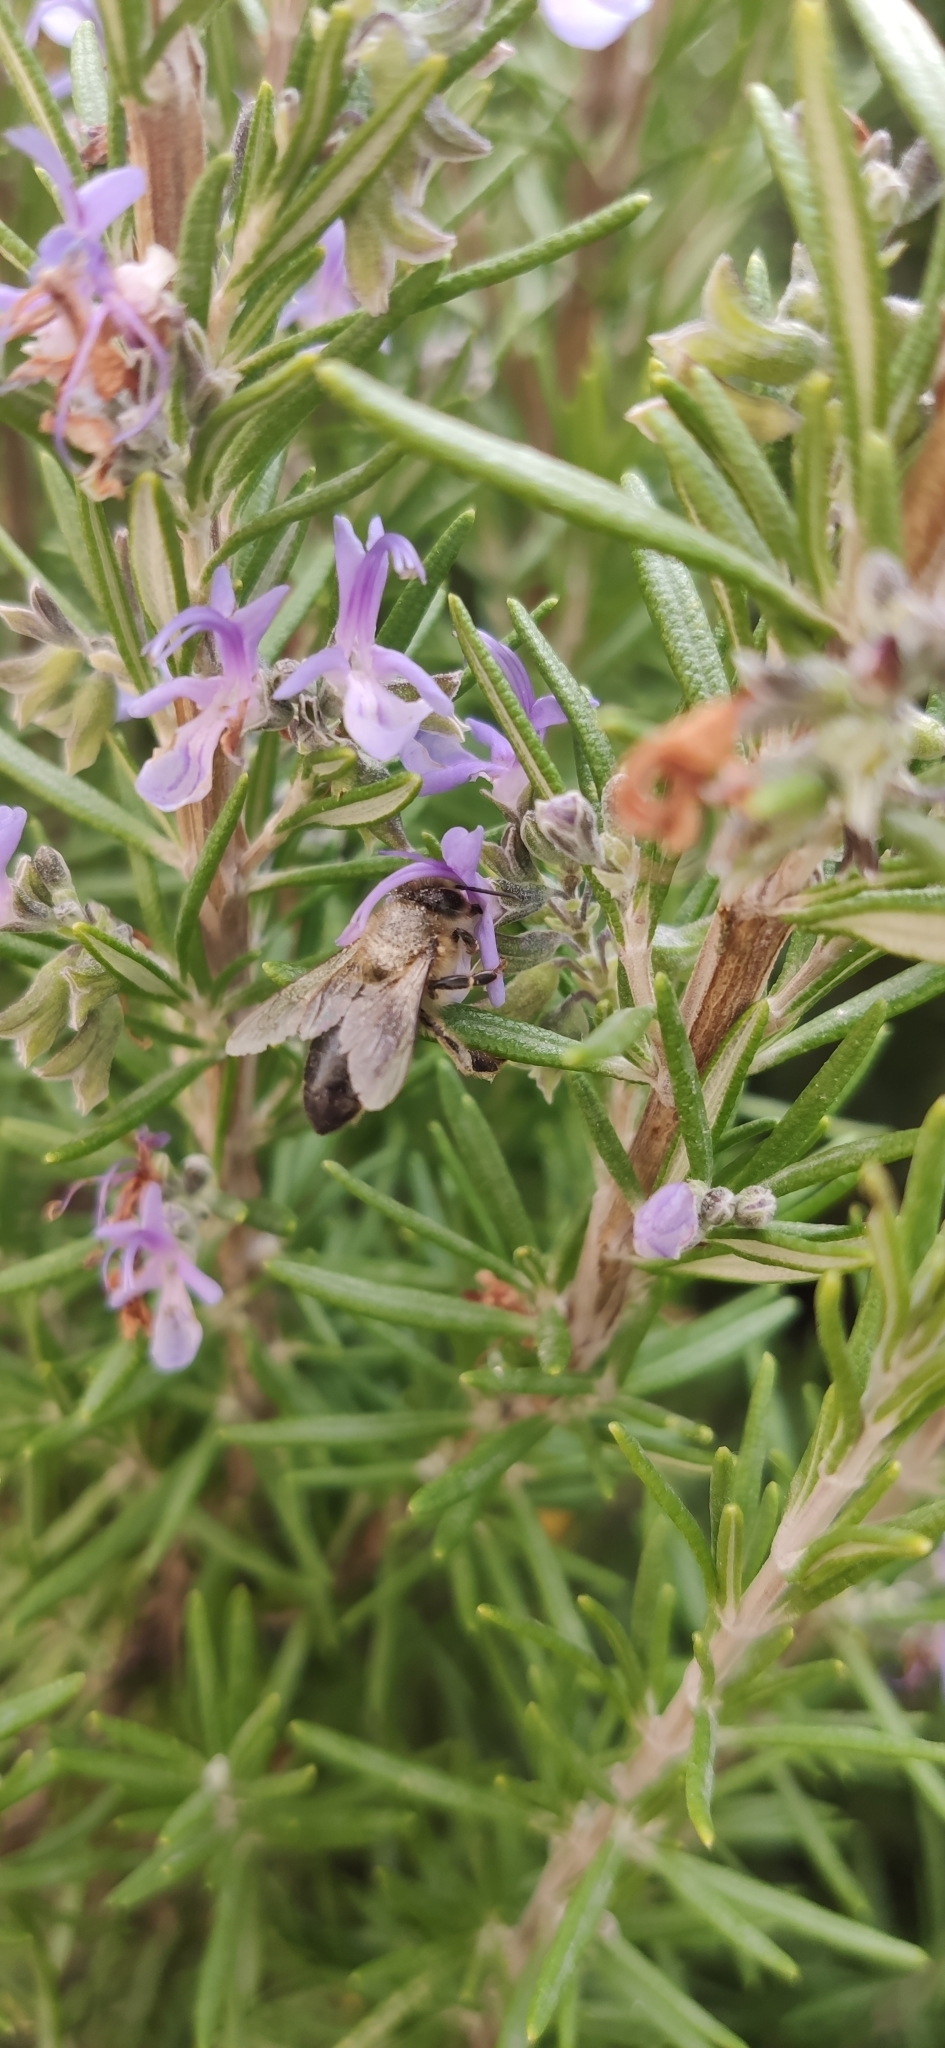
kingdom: Animalia
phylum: Arthropoda
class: Insecta
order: Hymenoptera
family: Apidae
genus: Apis
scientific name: Apis mellifera
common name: Honey bee
